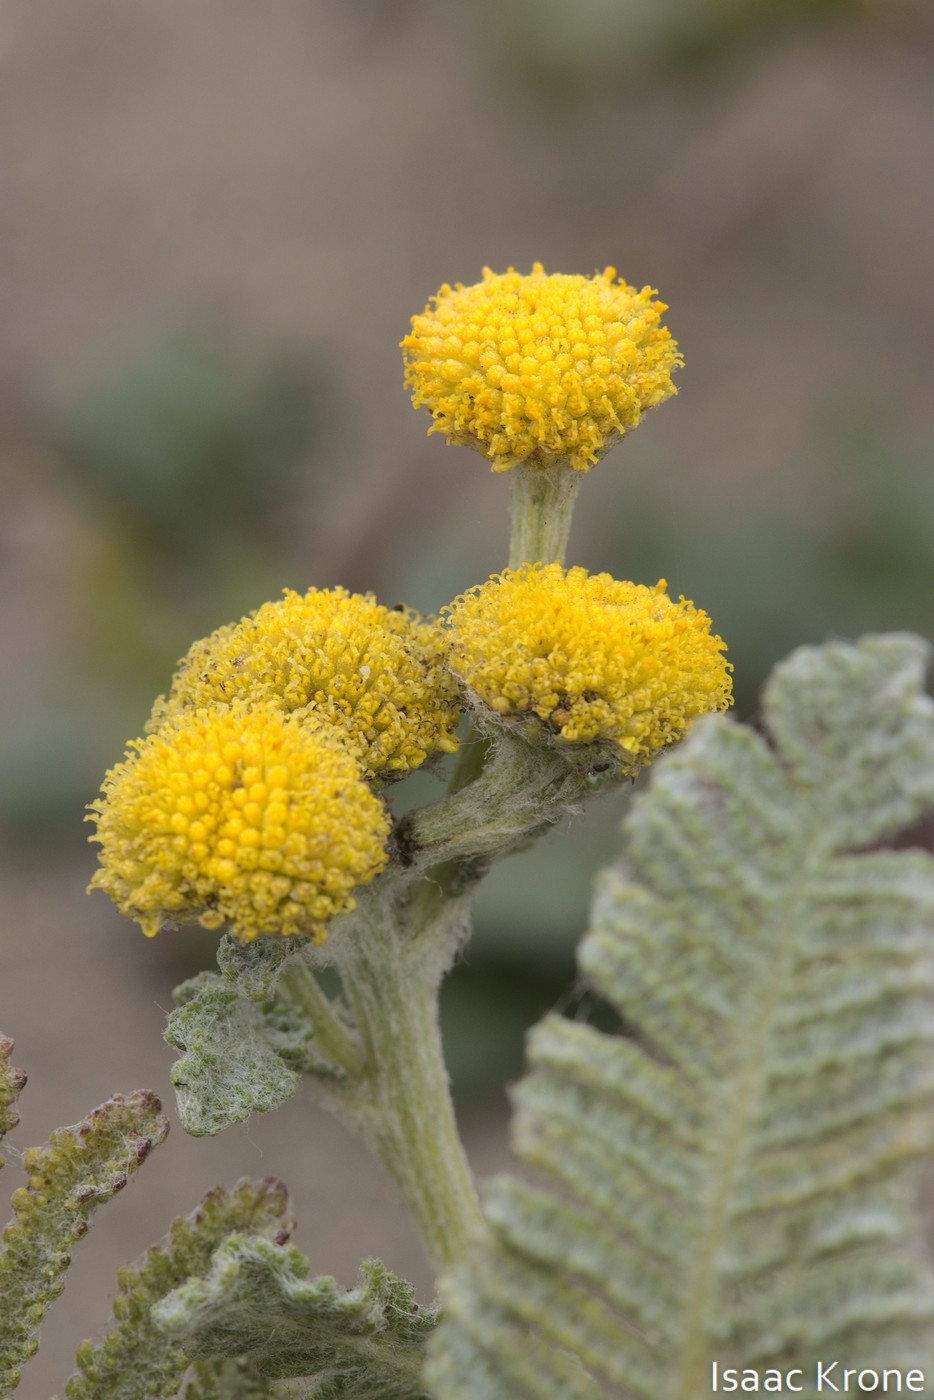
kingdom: Plantae
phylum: Tracheophyta
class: Magnoliopsida
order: Asterales
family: Asteraceae
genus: Tanacetum
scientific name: Tanacetum bipinnatum
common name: Dwarf tansy
